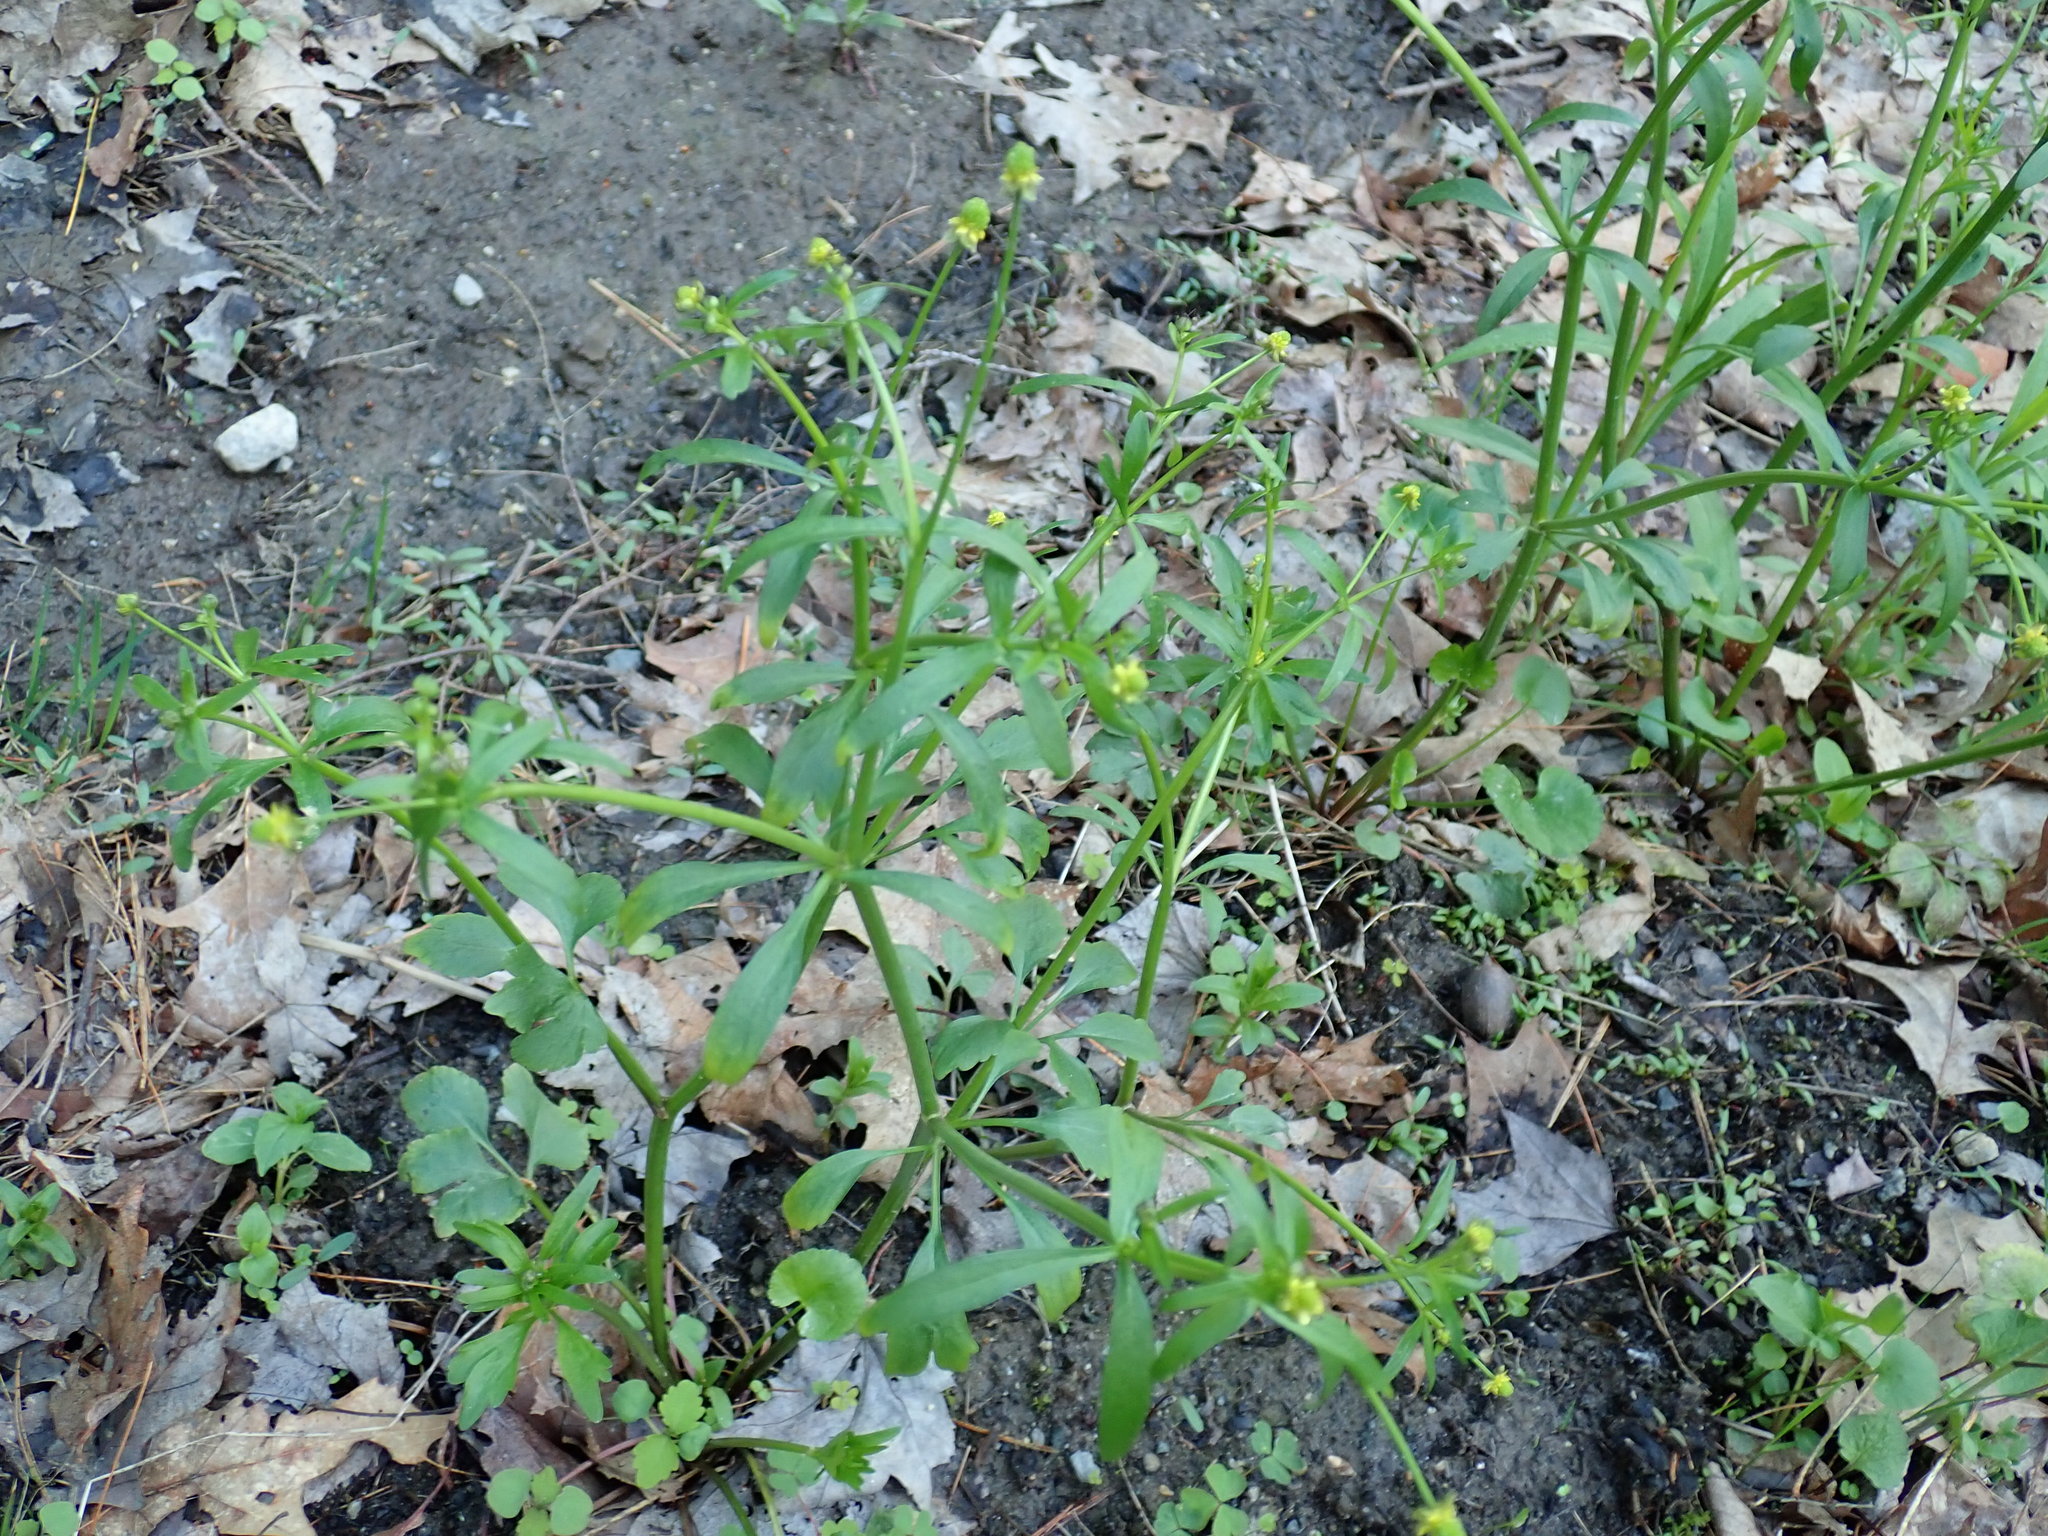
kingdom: Plantae
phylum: Tracheophyta
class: Magnoliopsida
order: Ranunculales
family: Ranunculaceae
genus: Ranunculus
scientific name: Ranunculus abortivus
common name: Early wood buttercup
